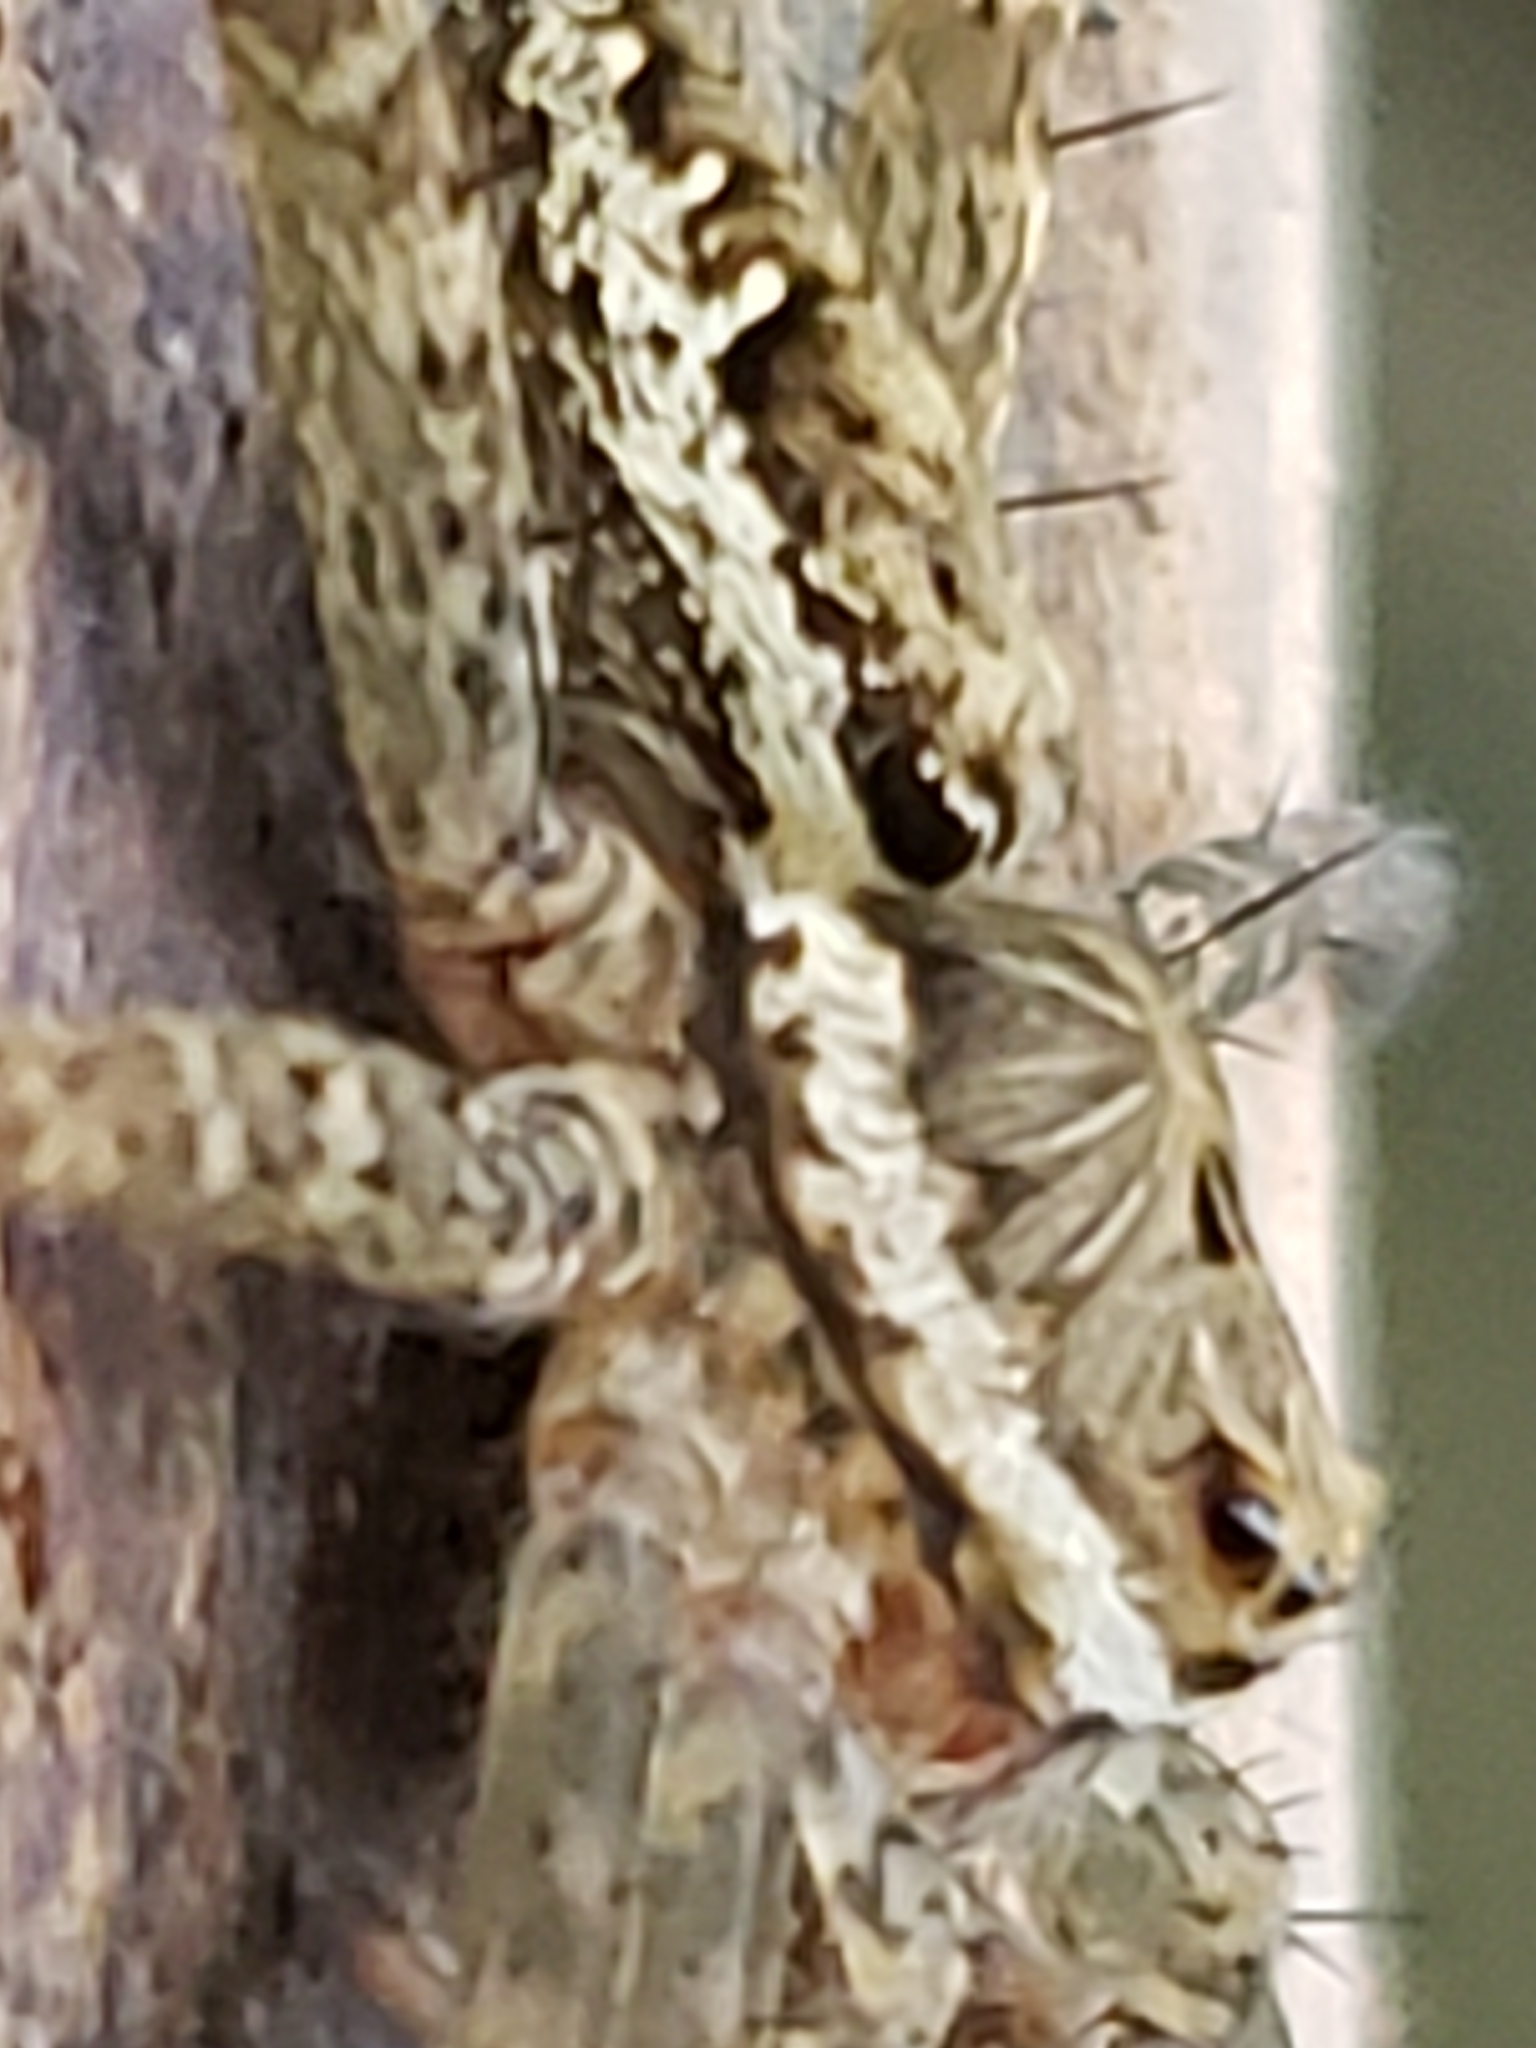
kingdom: Animalia
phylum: Arthropoda
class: Arachnida
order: Araneae
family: Pisauridae
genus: Dolomedes
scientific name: Dolomedes vittatus
